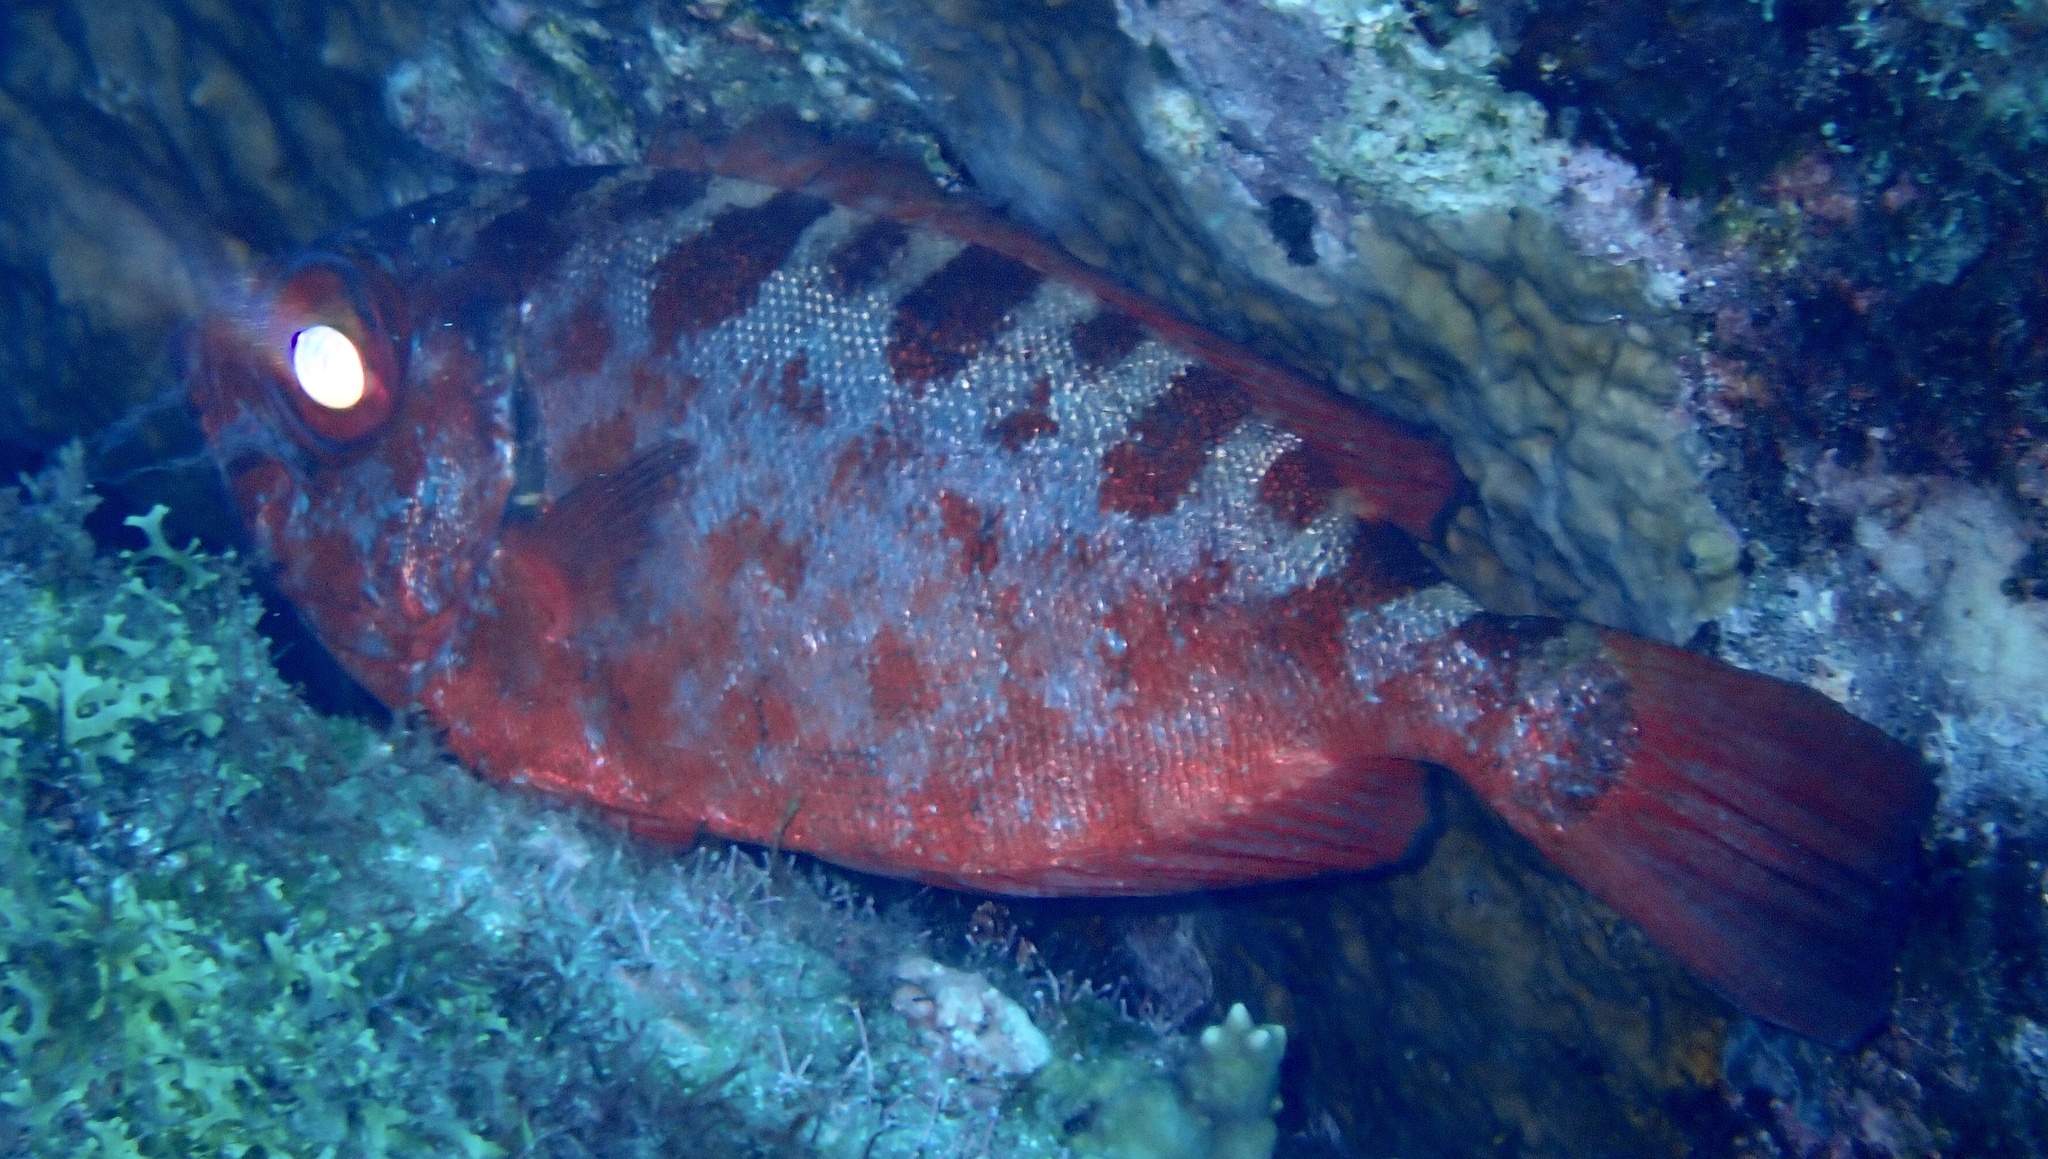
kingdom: Animalia
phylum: Chordata
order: Perciformes
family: Priacanthidae
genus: Heteropriacanthus
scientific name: Heteropriacanthus fulgens
